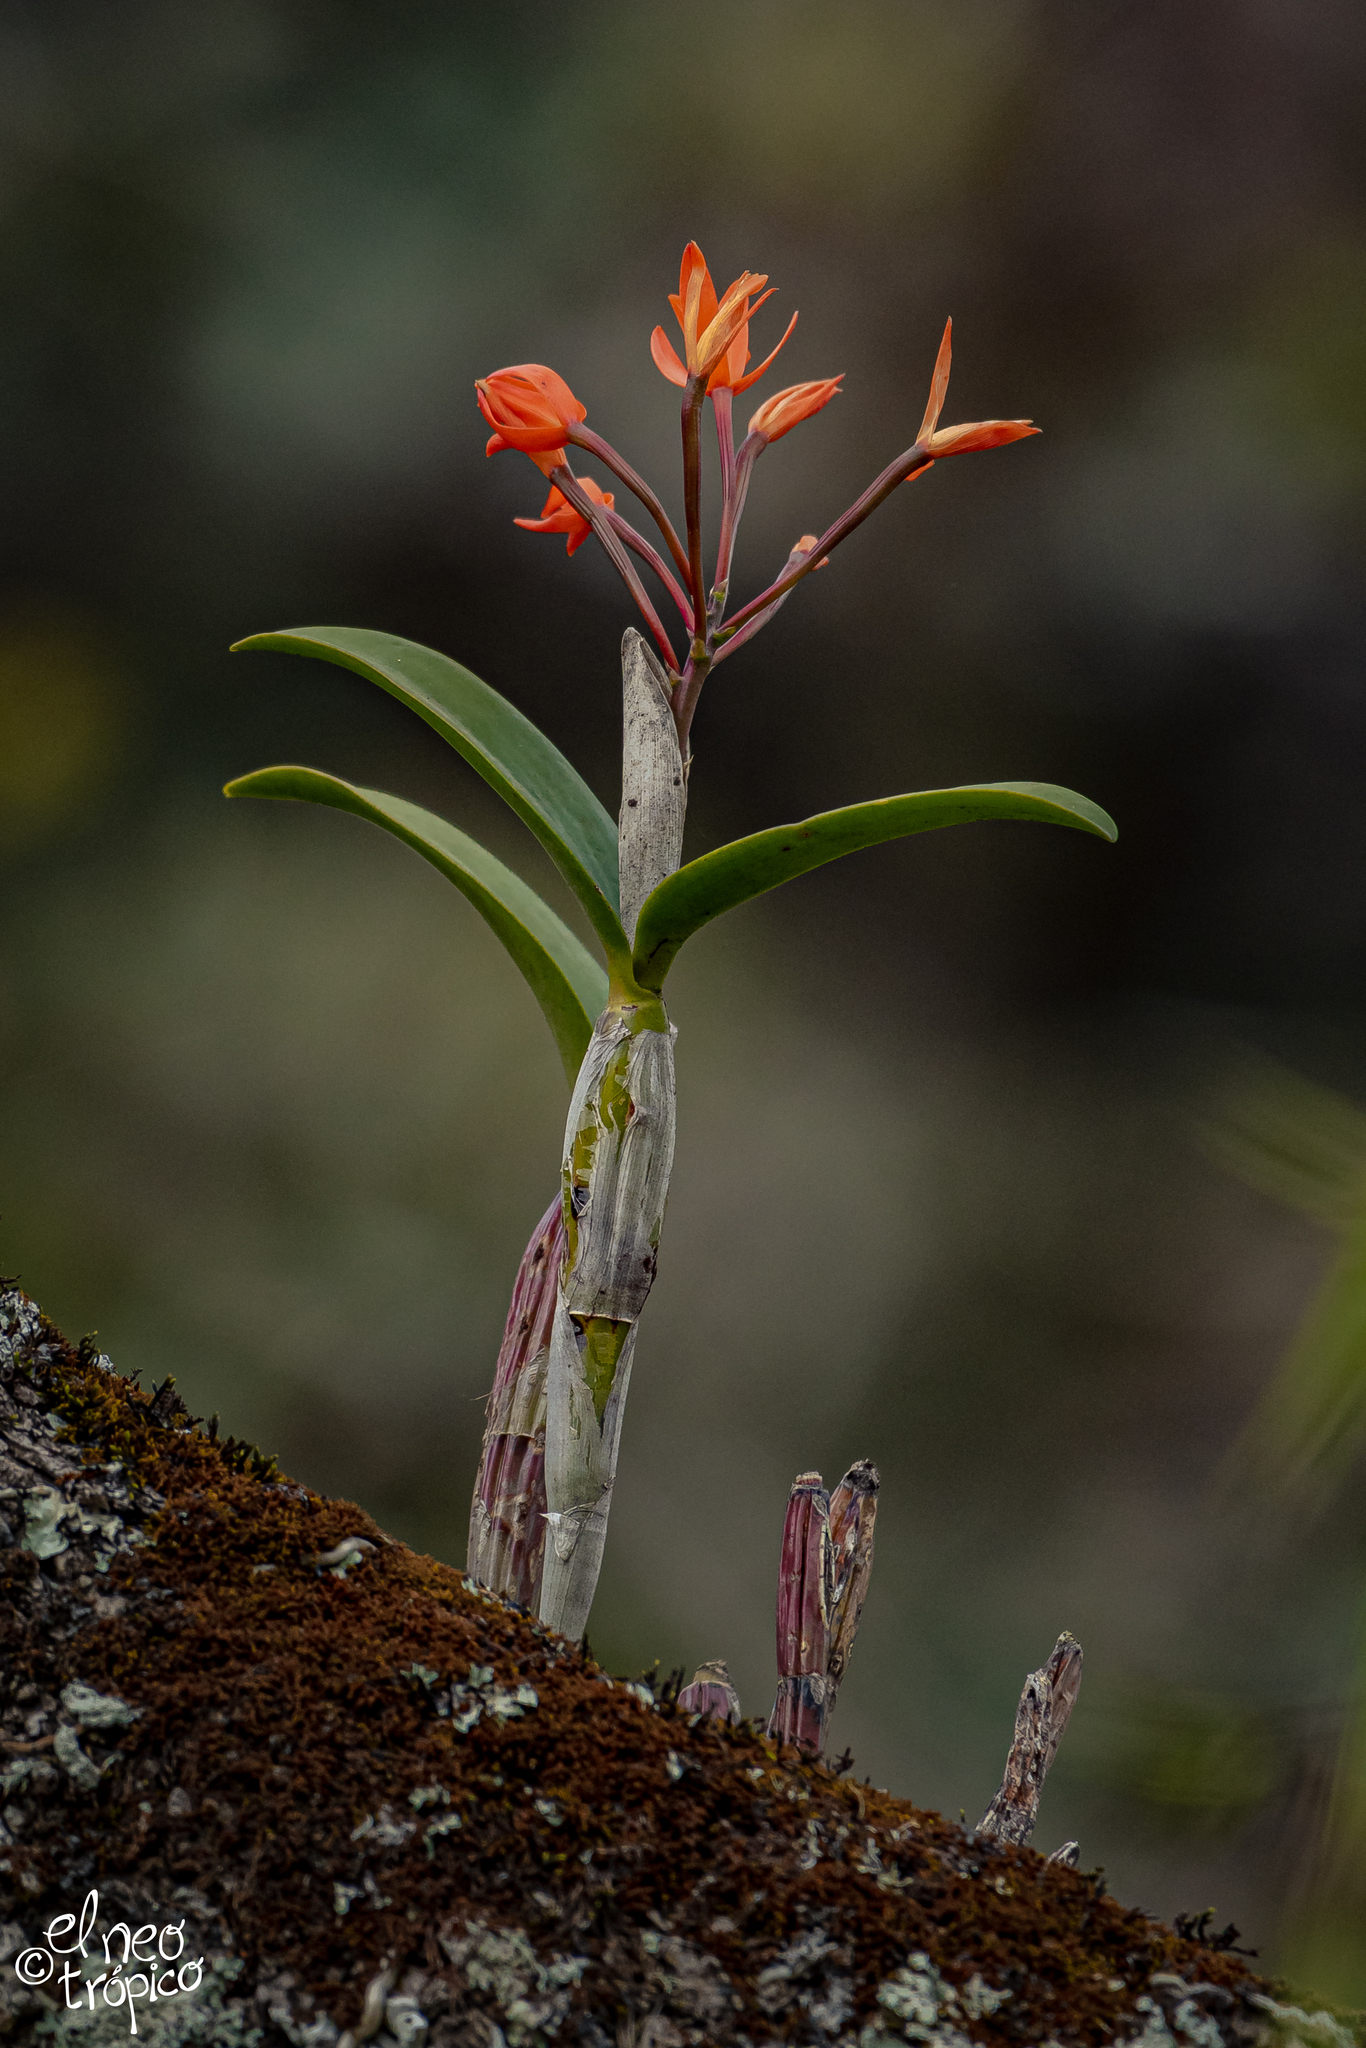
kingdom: Plantae
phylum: Tracheophyta
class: Liliopsida
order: Asparagales
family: Orchidaceae
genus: Guarianthe
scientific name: Guarianthe aurantiaca
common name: Orange cattleya
